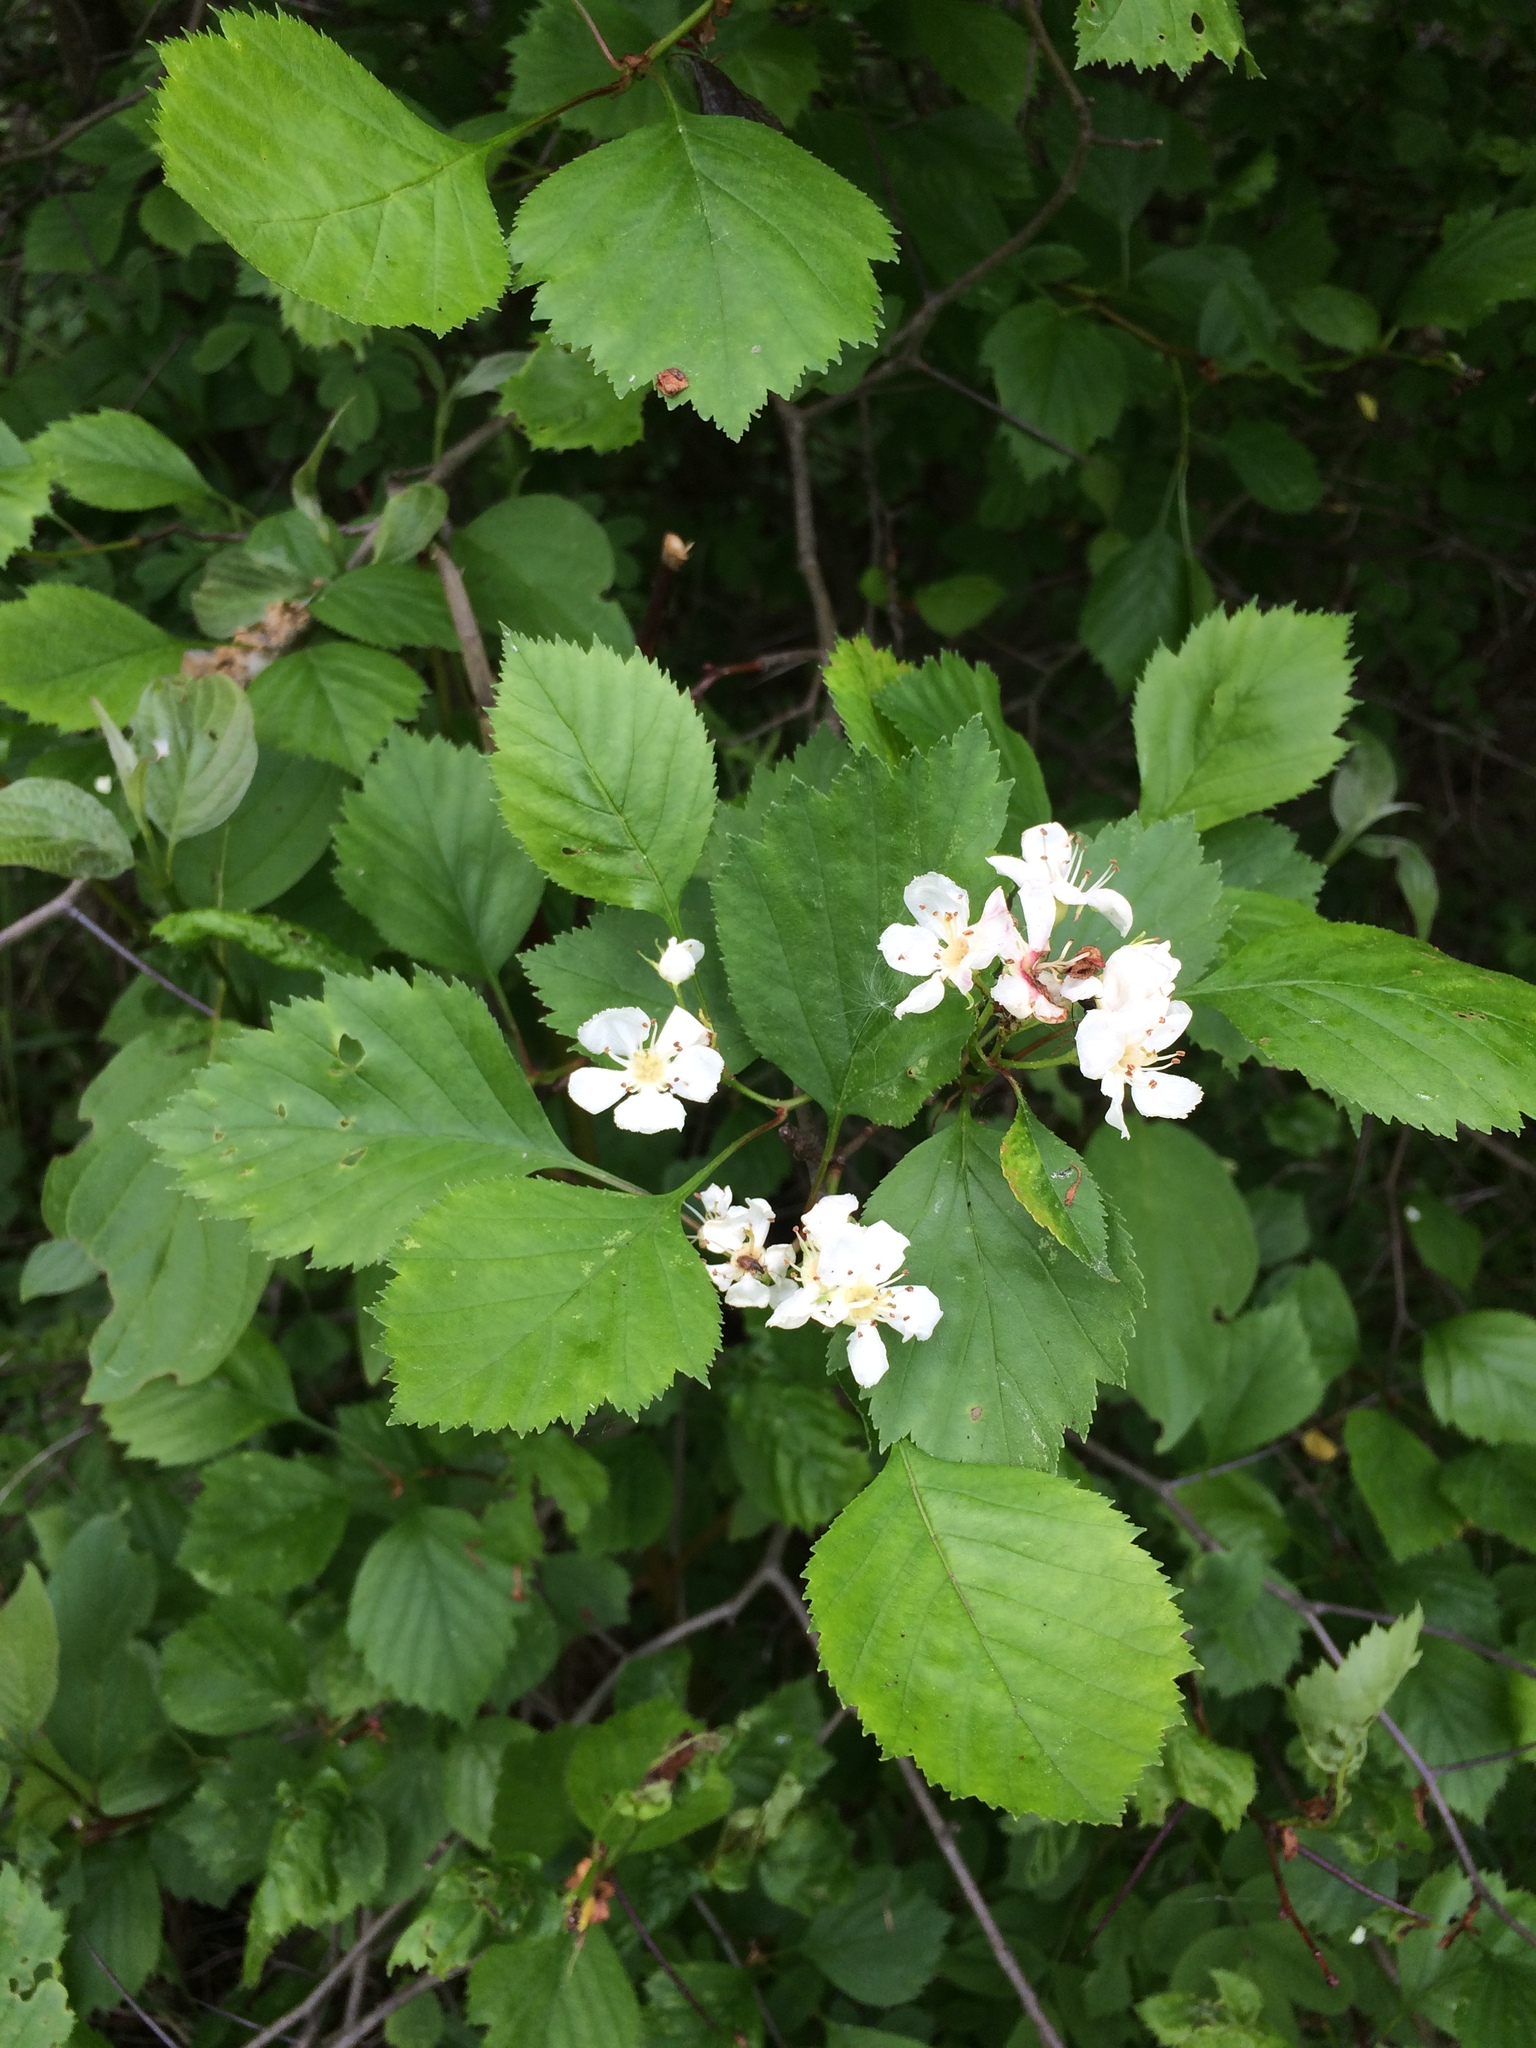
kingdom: Plantae
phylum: Tracheophyta
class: Magnoliopsida
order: Rosales
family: Rosaceae
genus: Crataegus
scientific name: Crataegus chrysocarpa
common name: Fire-berry hawthorn
